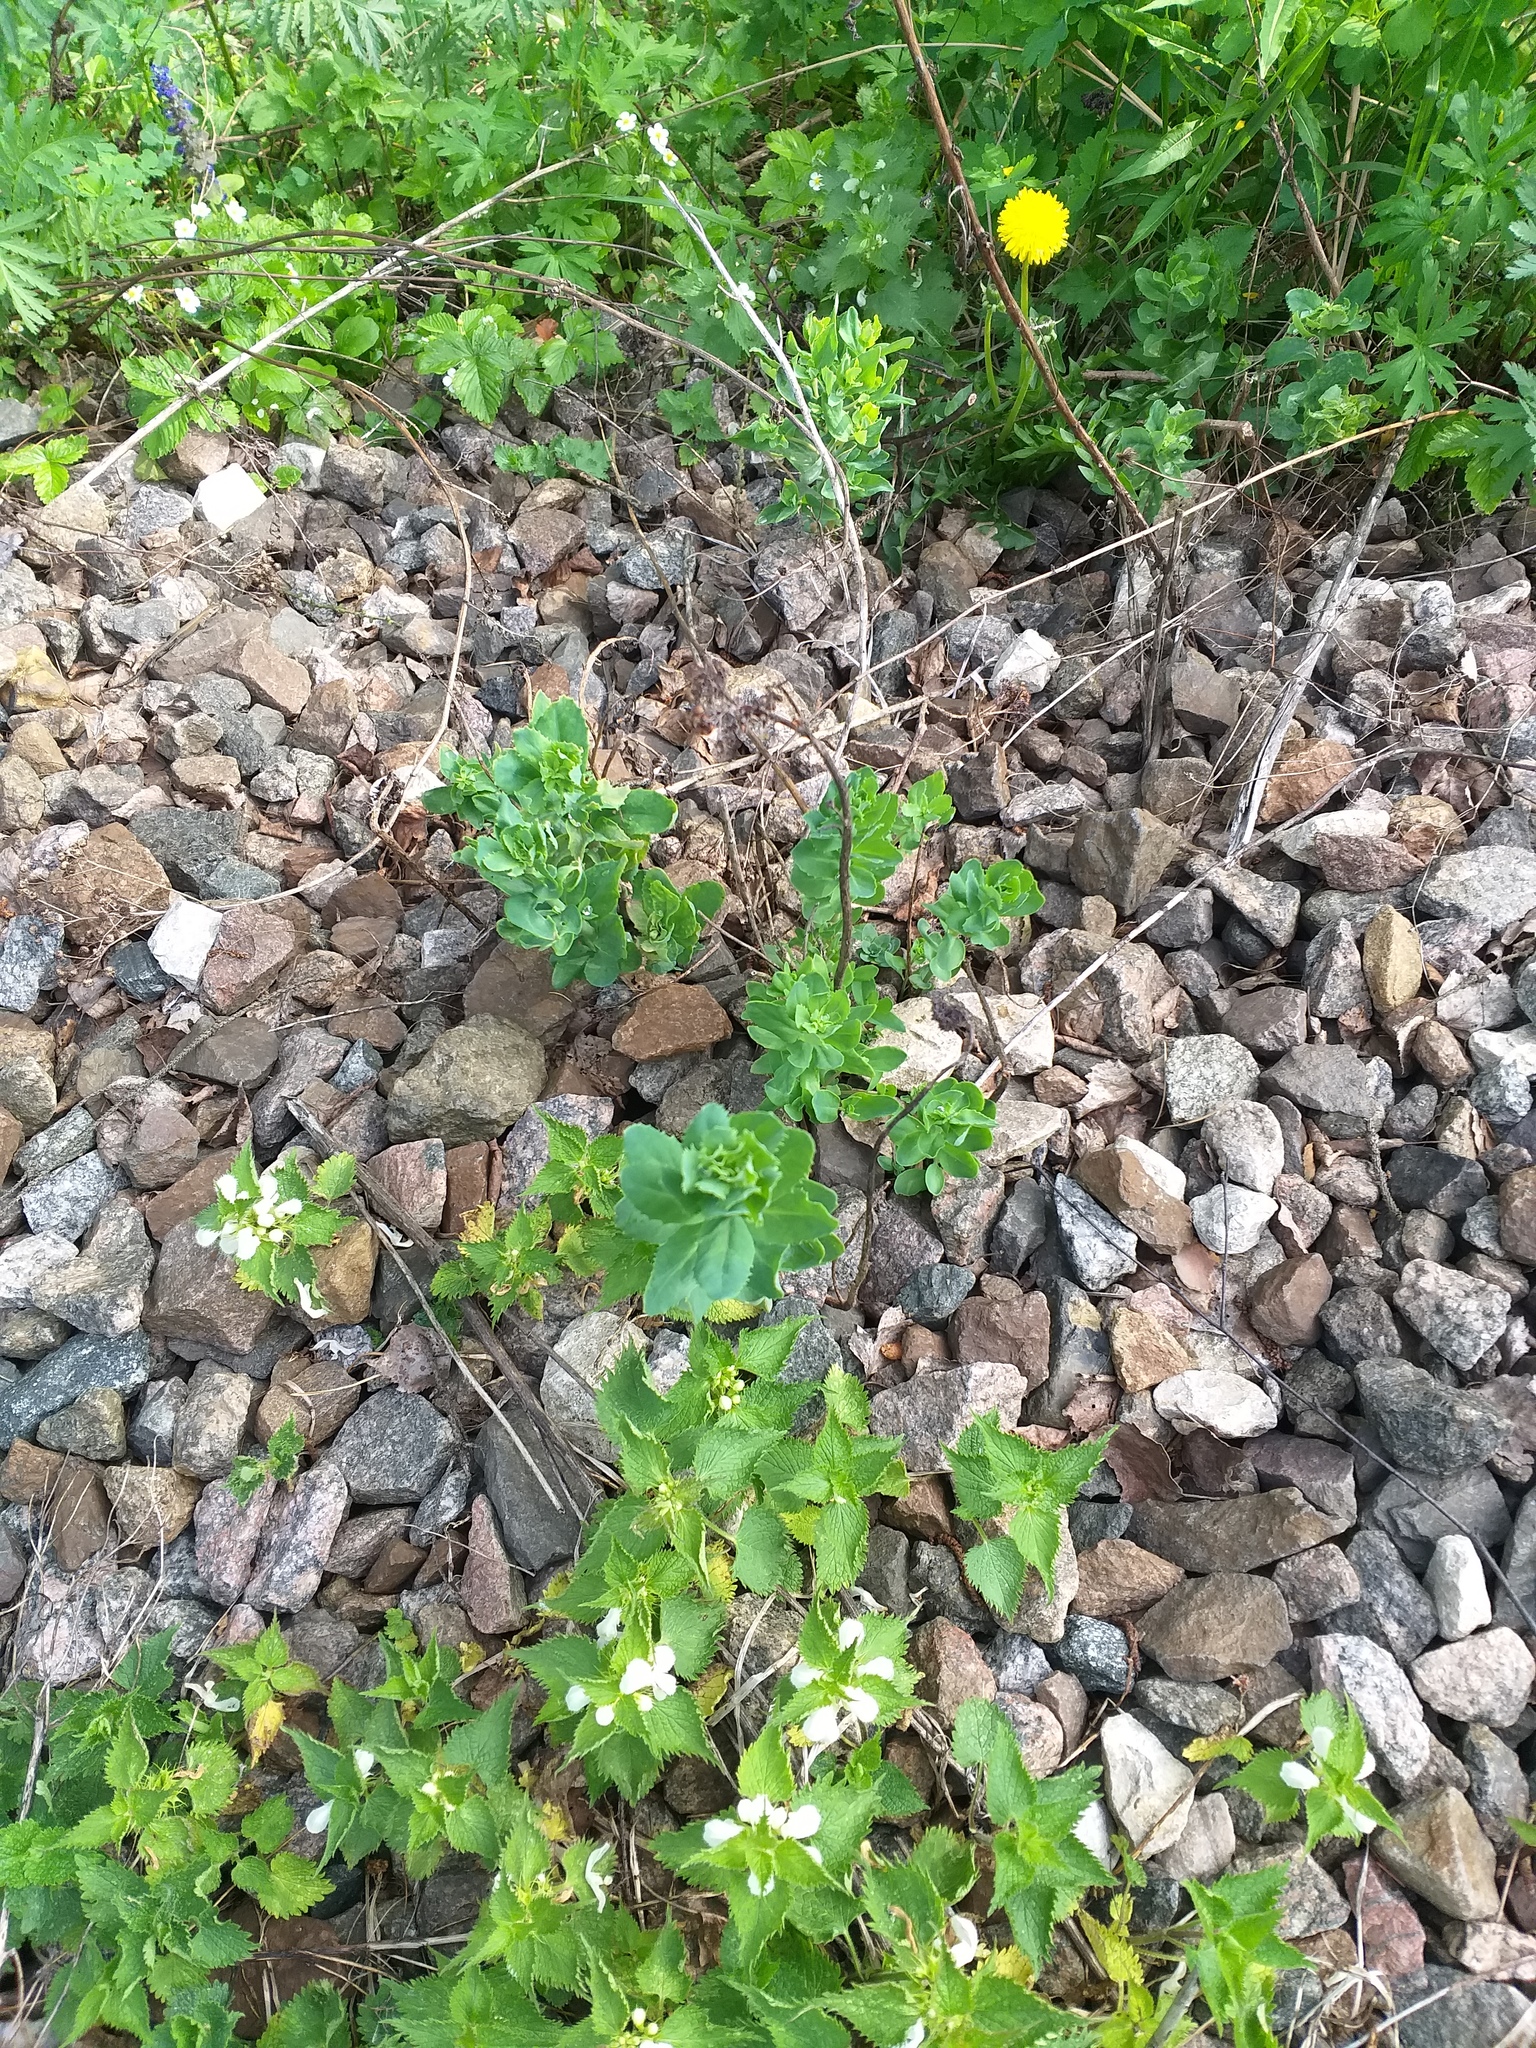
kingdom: Plantae
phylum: Tracheophyta
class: Magnoliopsida
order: Saxifragales
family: Crassulaceae
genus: Hylotelephium
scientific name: Hylotelephium telephium
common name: Live-forever
